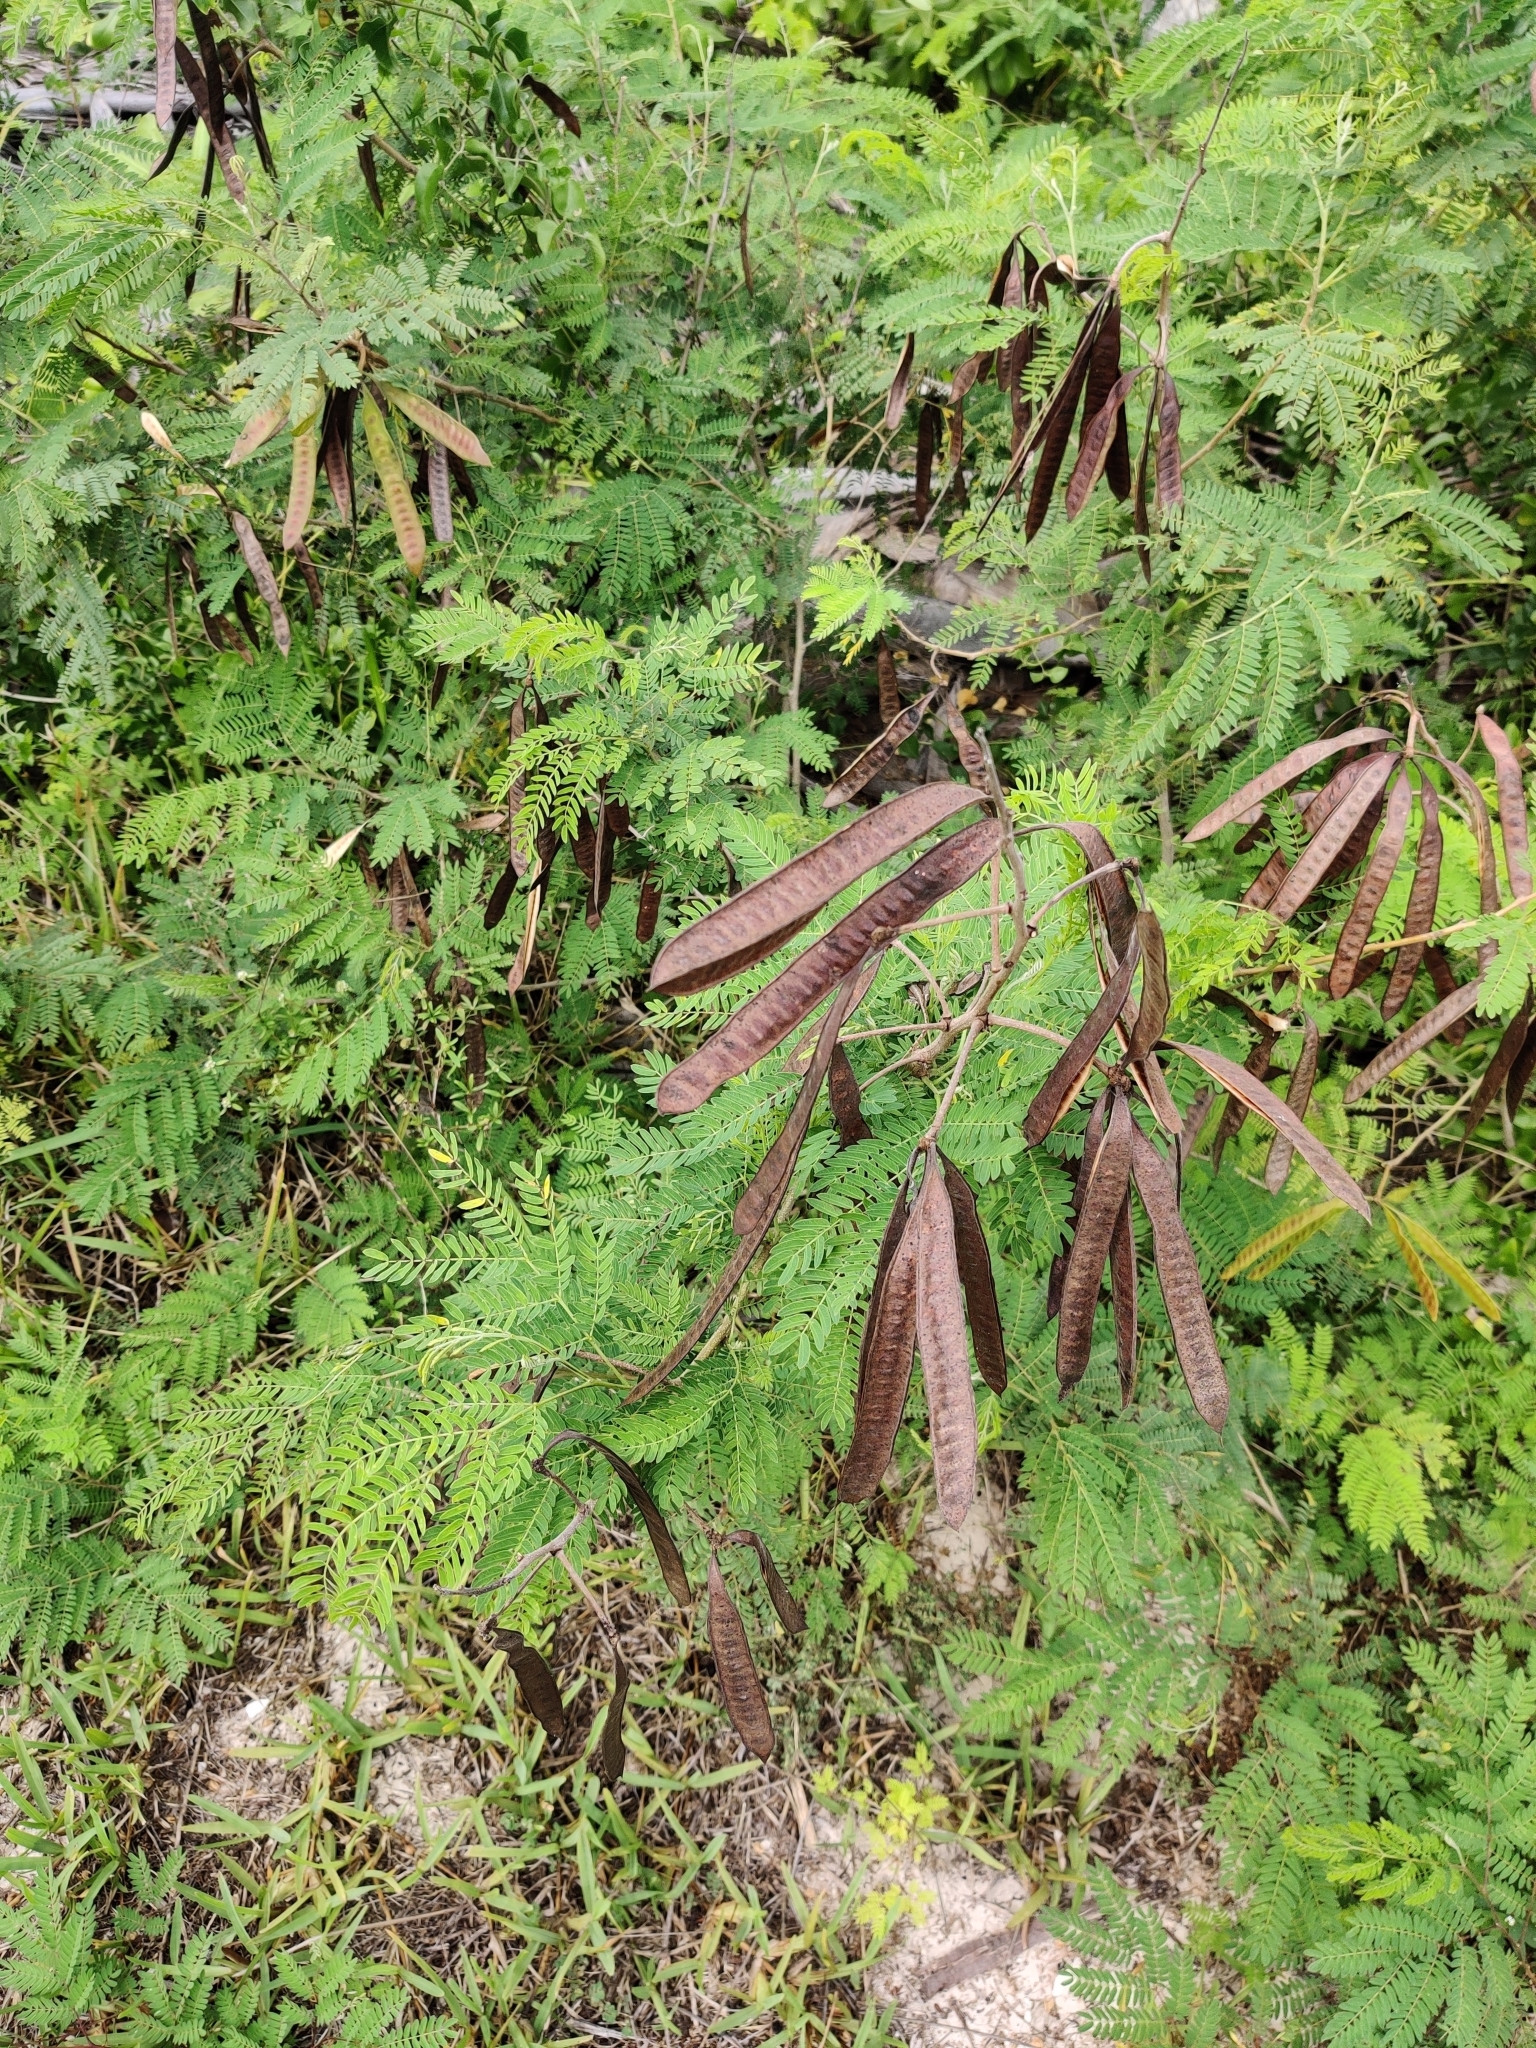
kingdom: Plantae
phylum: Tracheophyta
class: Magnoliopsida
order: Fabales
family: Fabaceae
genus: Leucaena
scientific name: Leucaena leucocephala
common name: White leadtree
